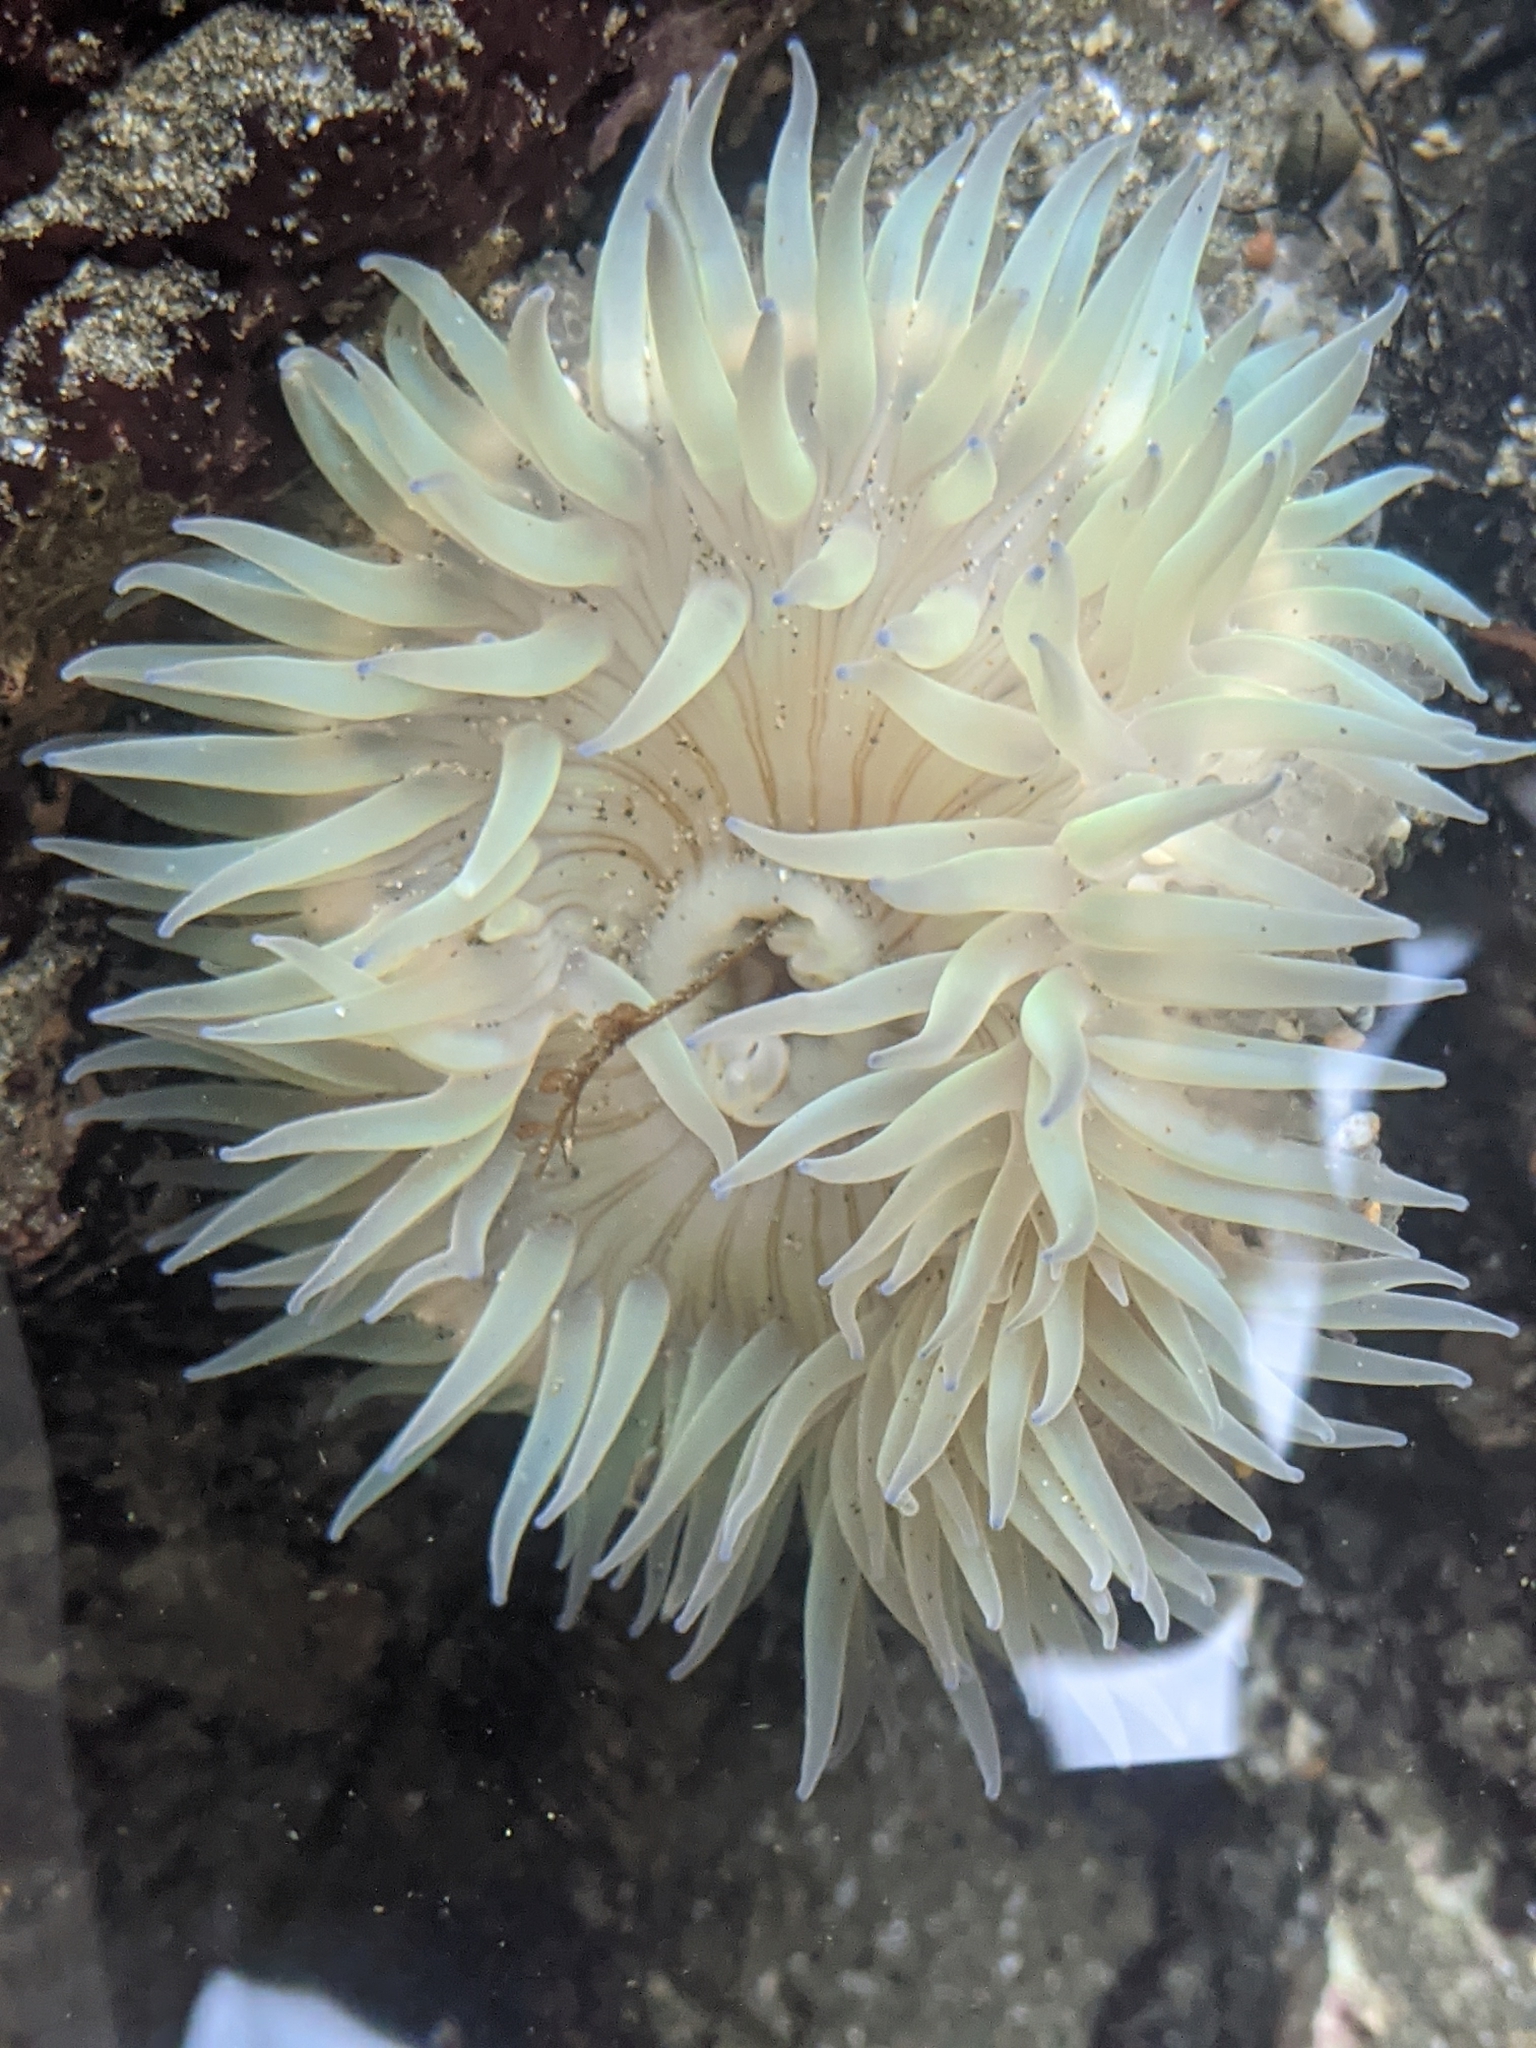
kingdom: Animalia
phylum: Cnidaria
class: Anthozoa
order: Actiniaria
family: Actiniidae
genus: Anthopleura
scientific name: Anthopleura sola
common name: Sun anemone
